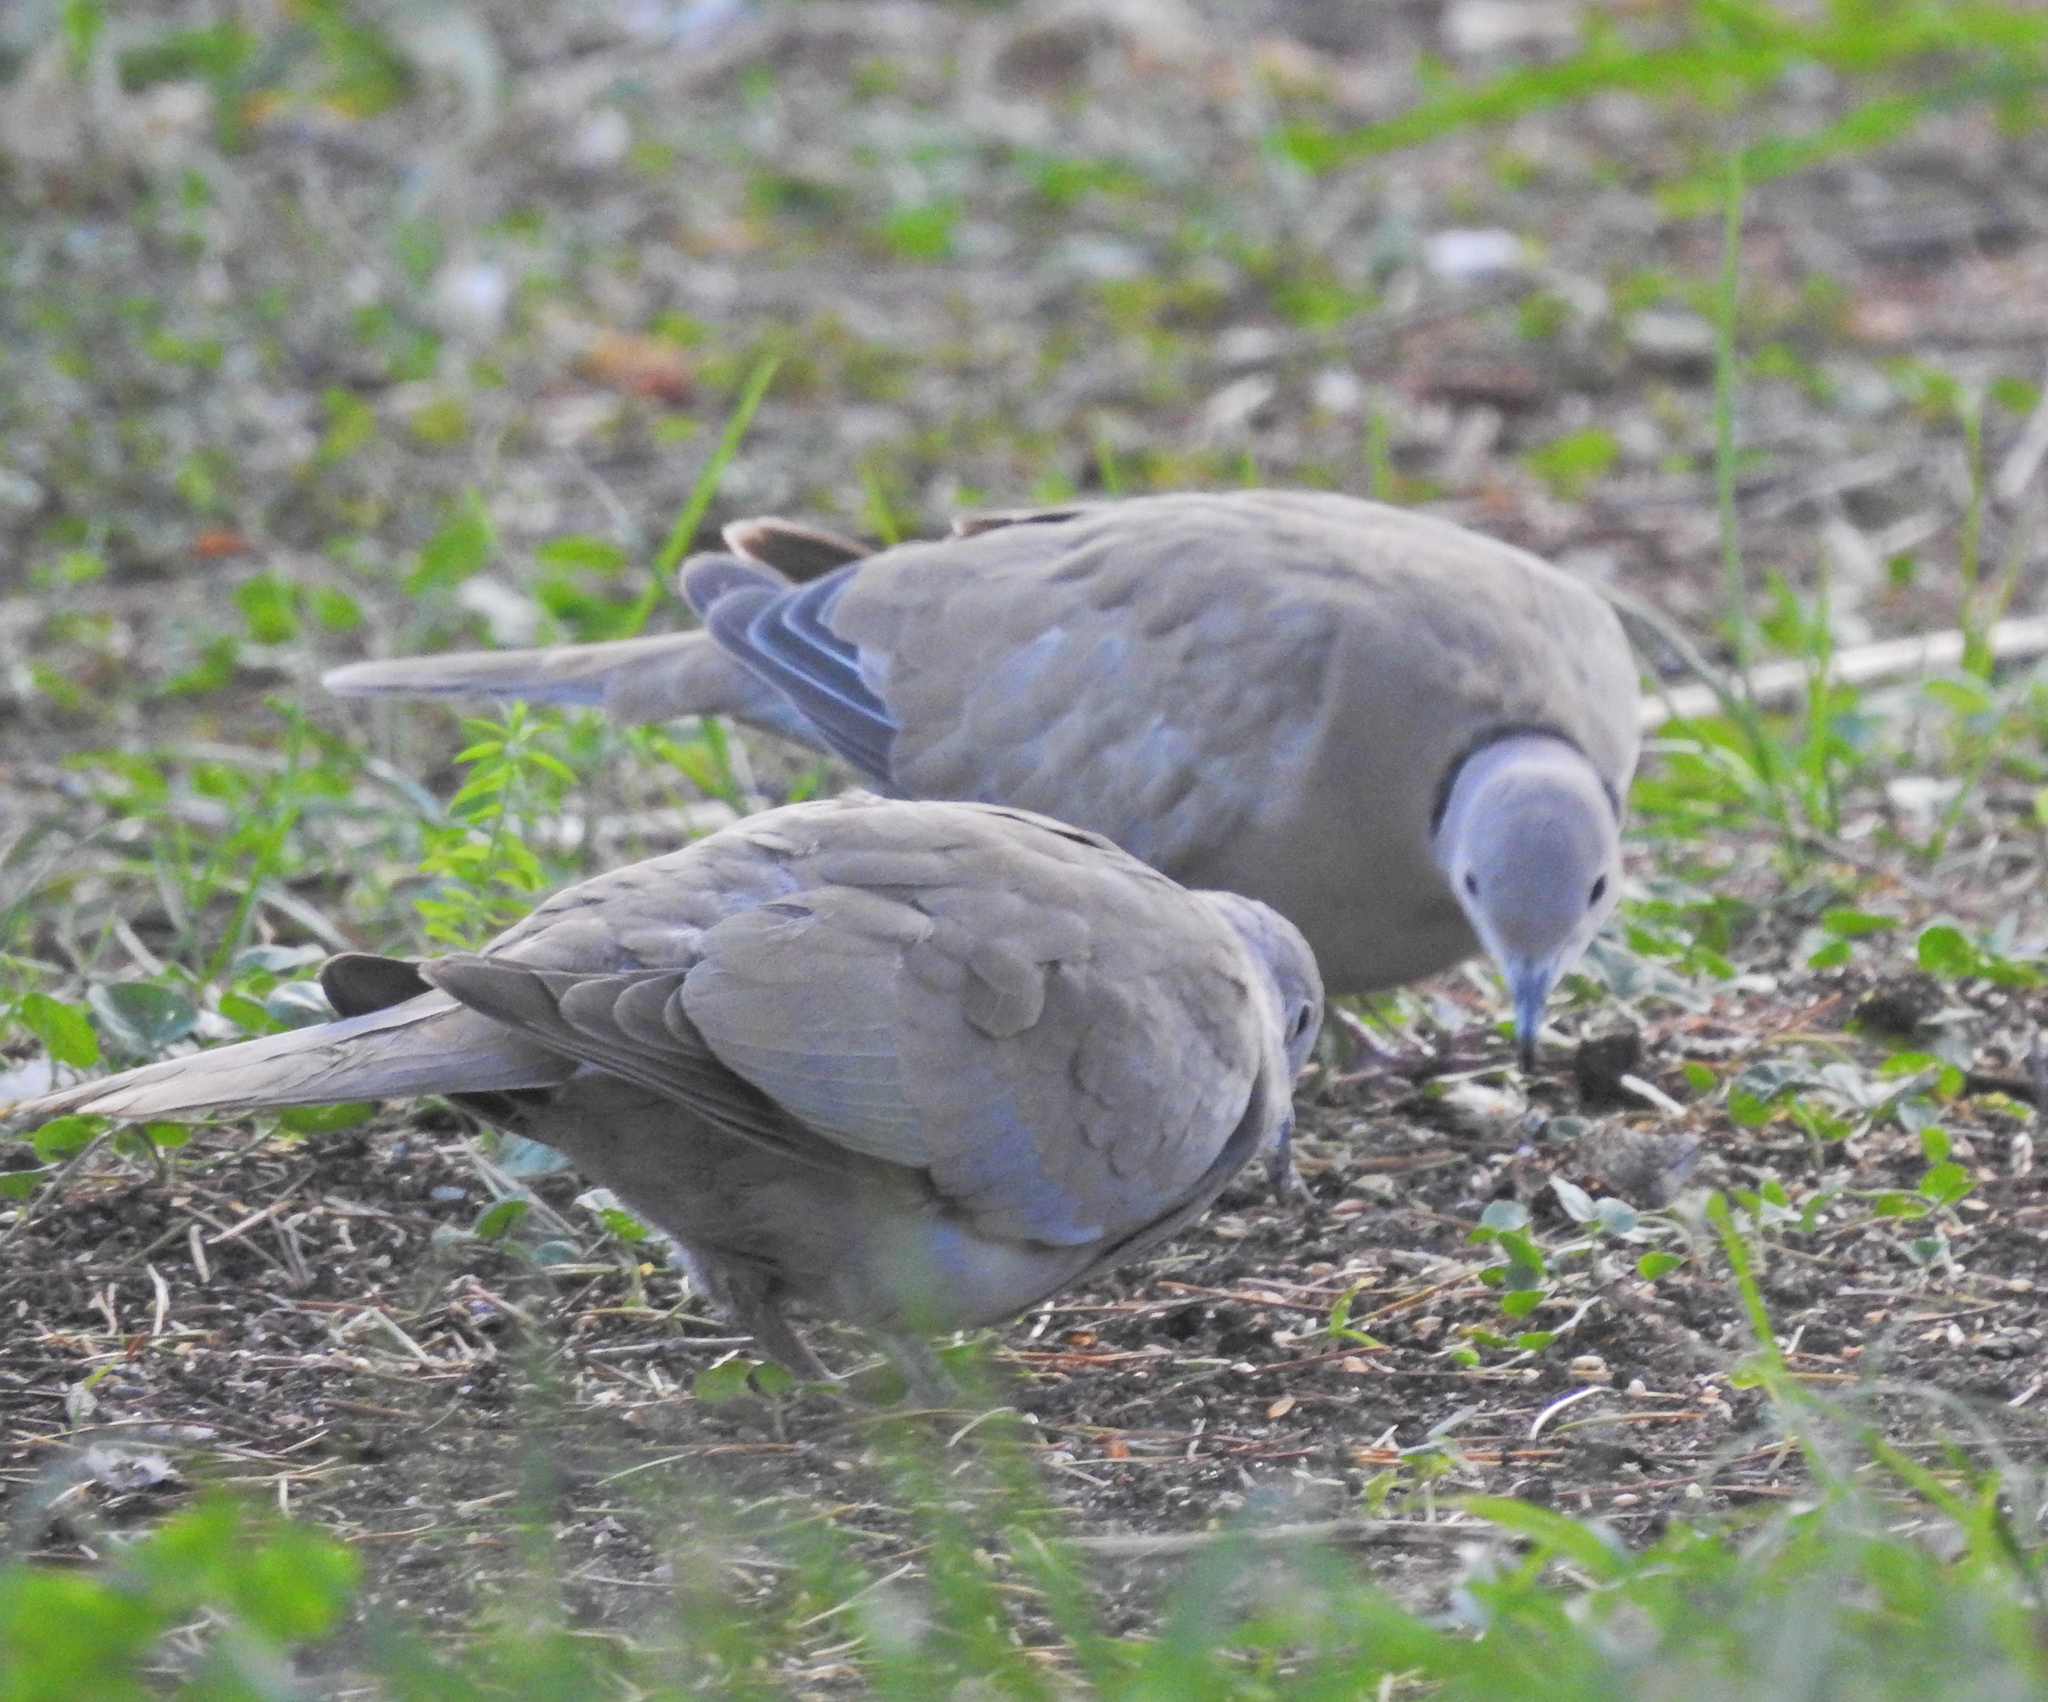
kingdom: Animalia
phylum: Chordata
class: Aves
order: Columbiformes
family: Columbidae
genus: Streptopelia
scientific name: Streptopelia decaocto
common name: Eurasian collared dove
